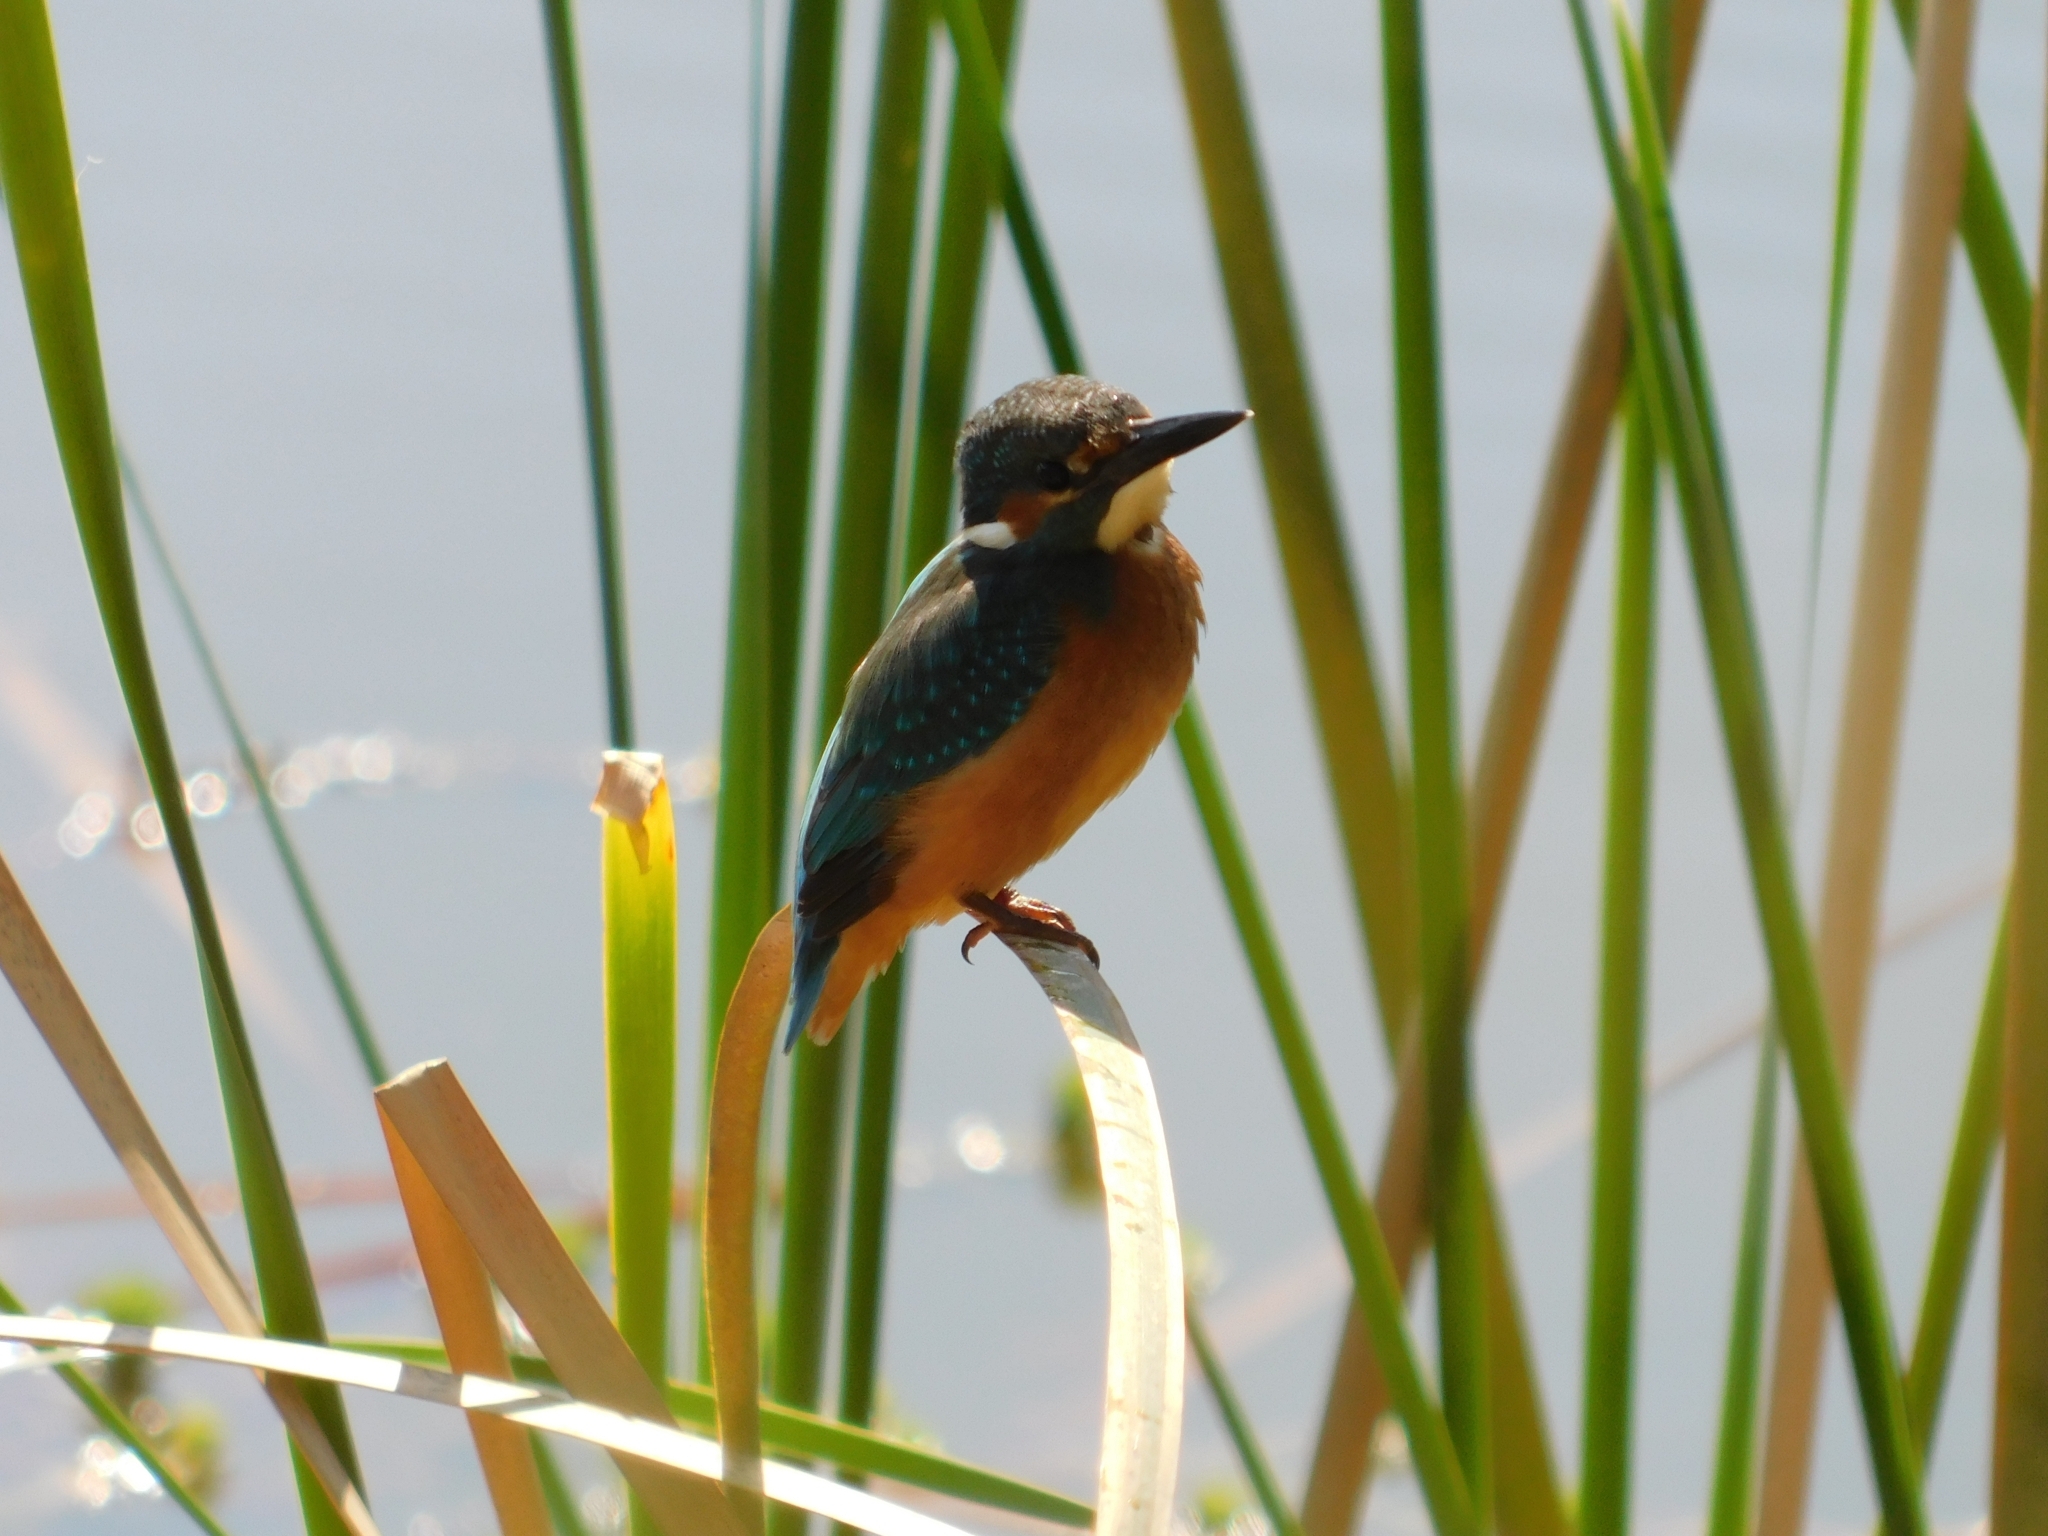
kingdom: Animalia
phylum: Chordata
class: Aves
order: Coraciiformes
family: Alcedinidae
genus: Alcedo
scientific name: Alcedo atthis
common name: Common kingfisher
